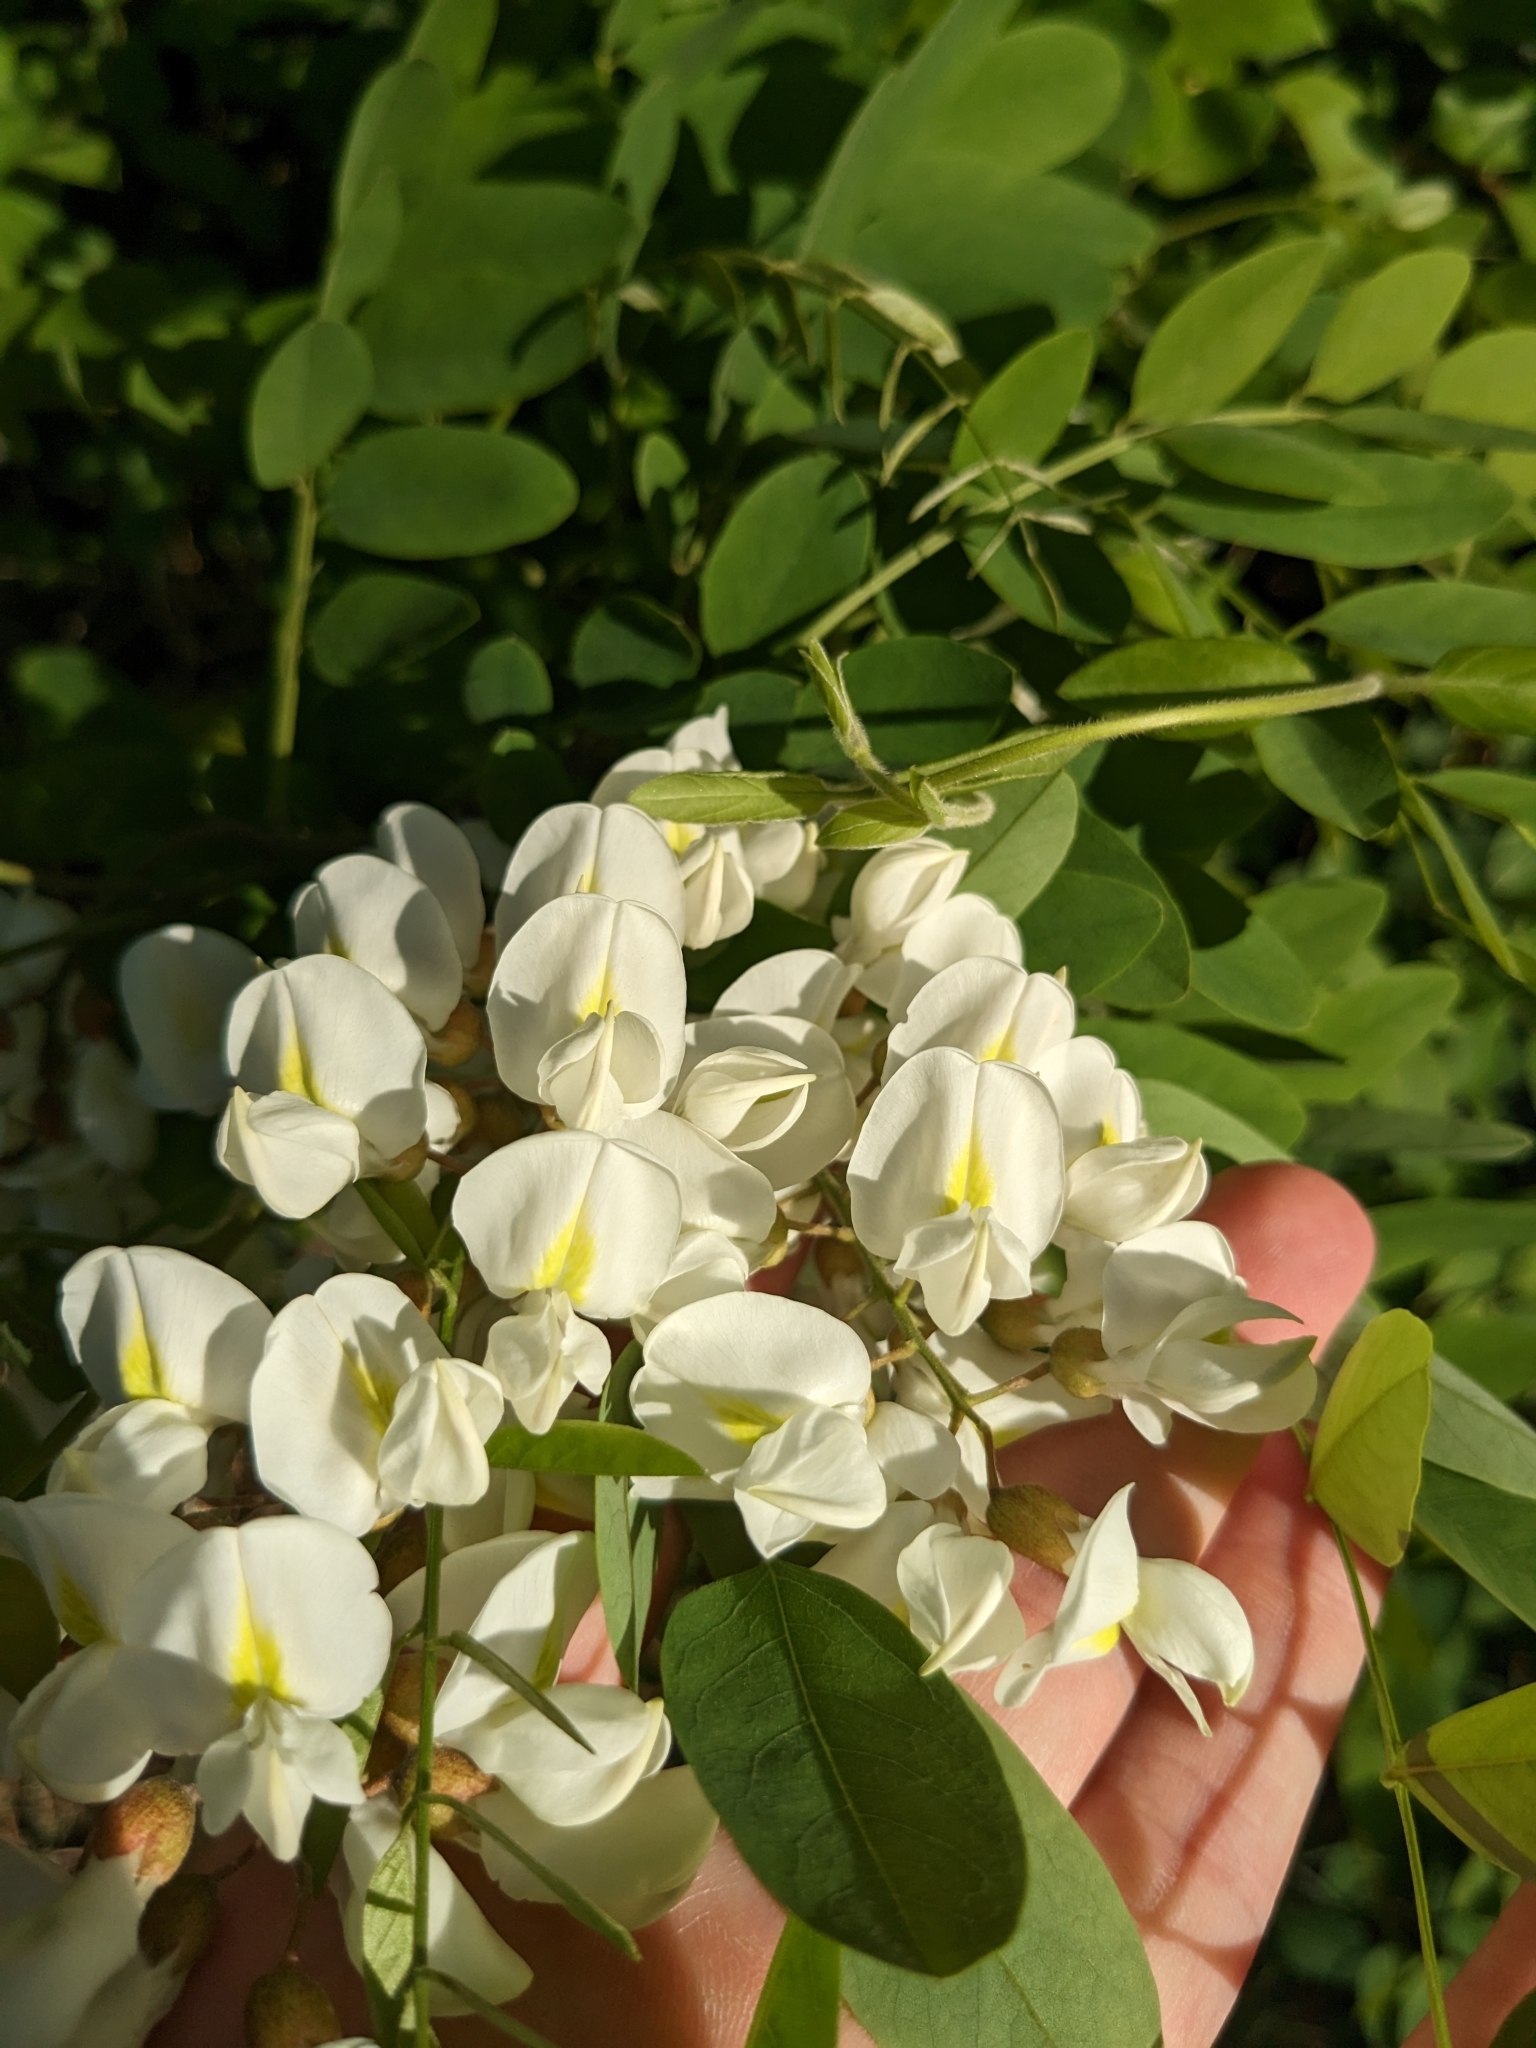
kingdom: Plantae
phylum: Tracheophyta
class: Magnoliopsida
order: Fabales
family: Fabaceae
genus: Robinia
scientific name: Robinia pseudoacacia
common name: Black locust
